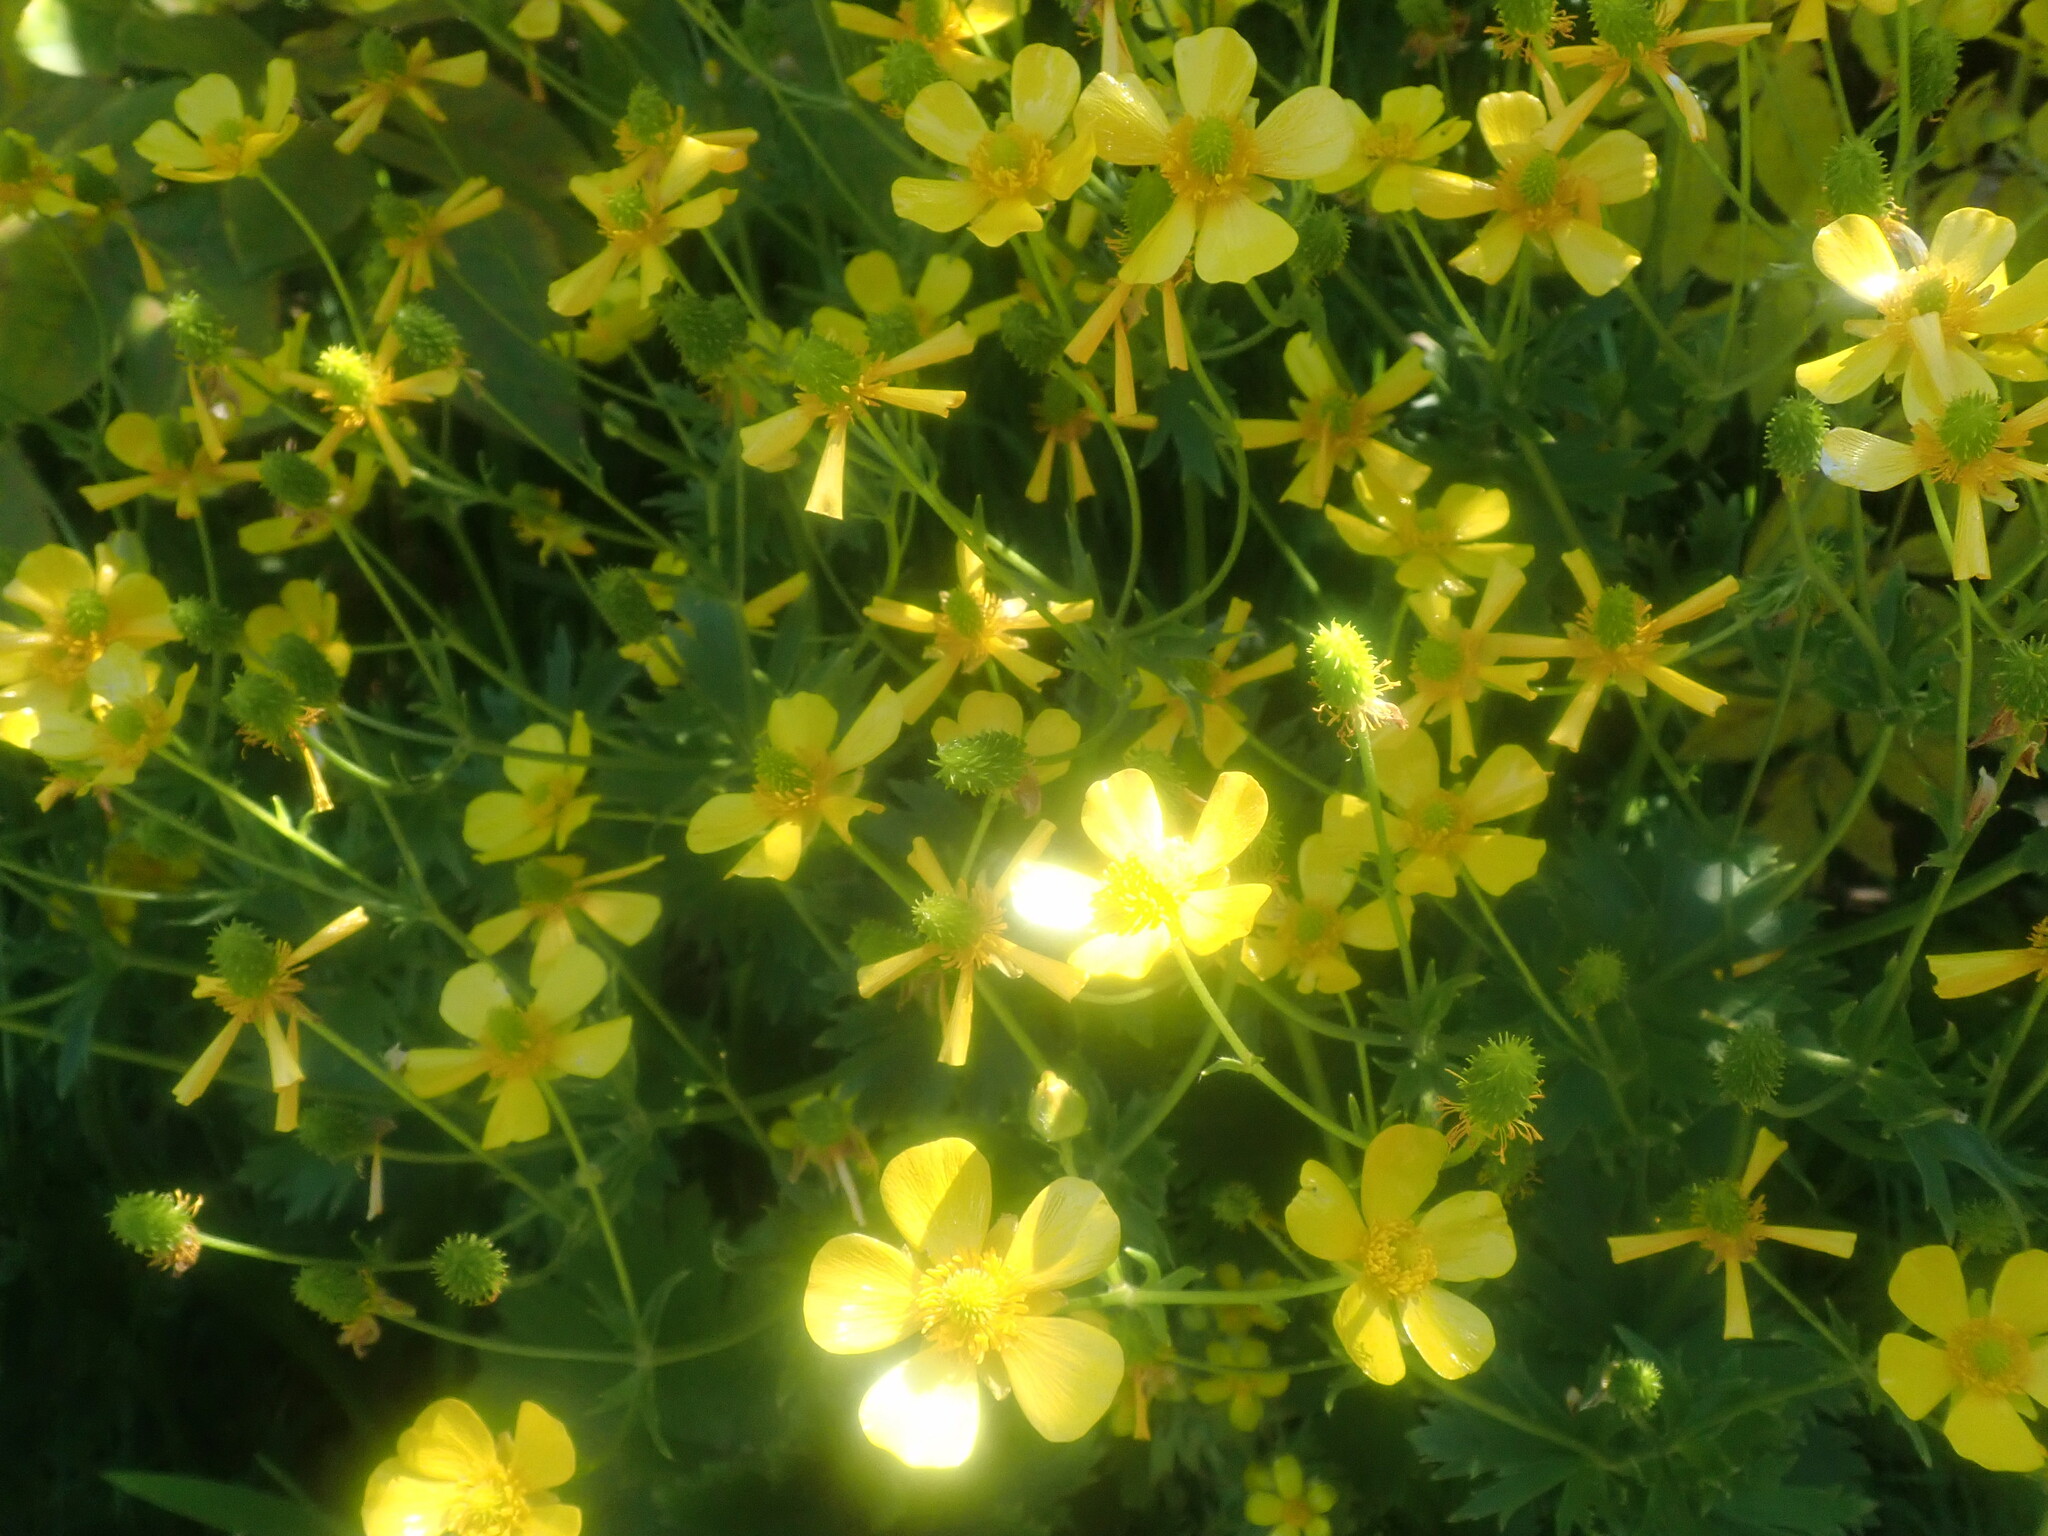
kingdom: Plantae
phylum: Tracheophyta
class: Magnoliopsida
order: Ranunculales
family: Ranunculaceae
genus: Ranunculus
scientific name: Ranunculus cortusifolius
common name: Azores buttercup
